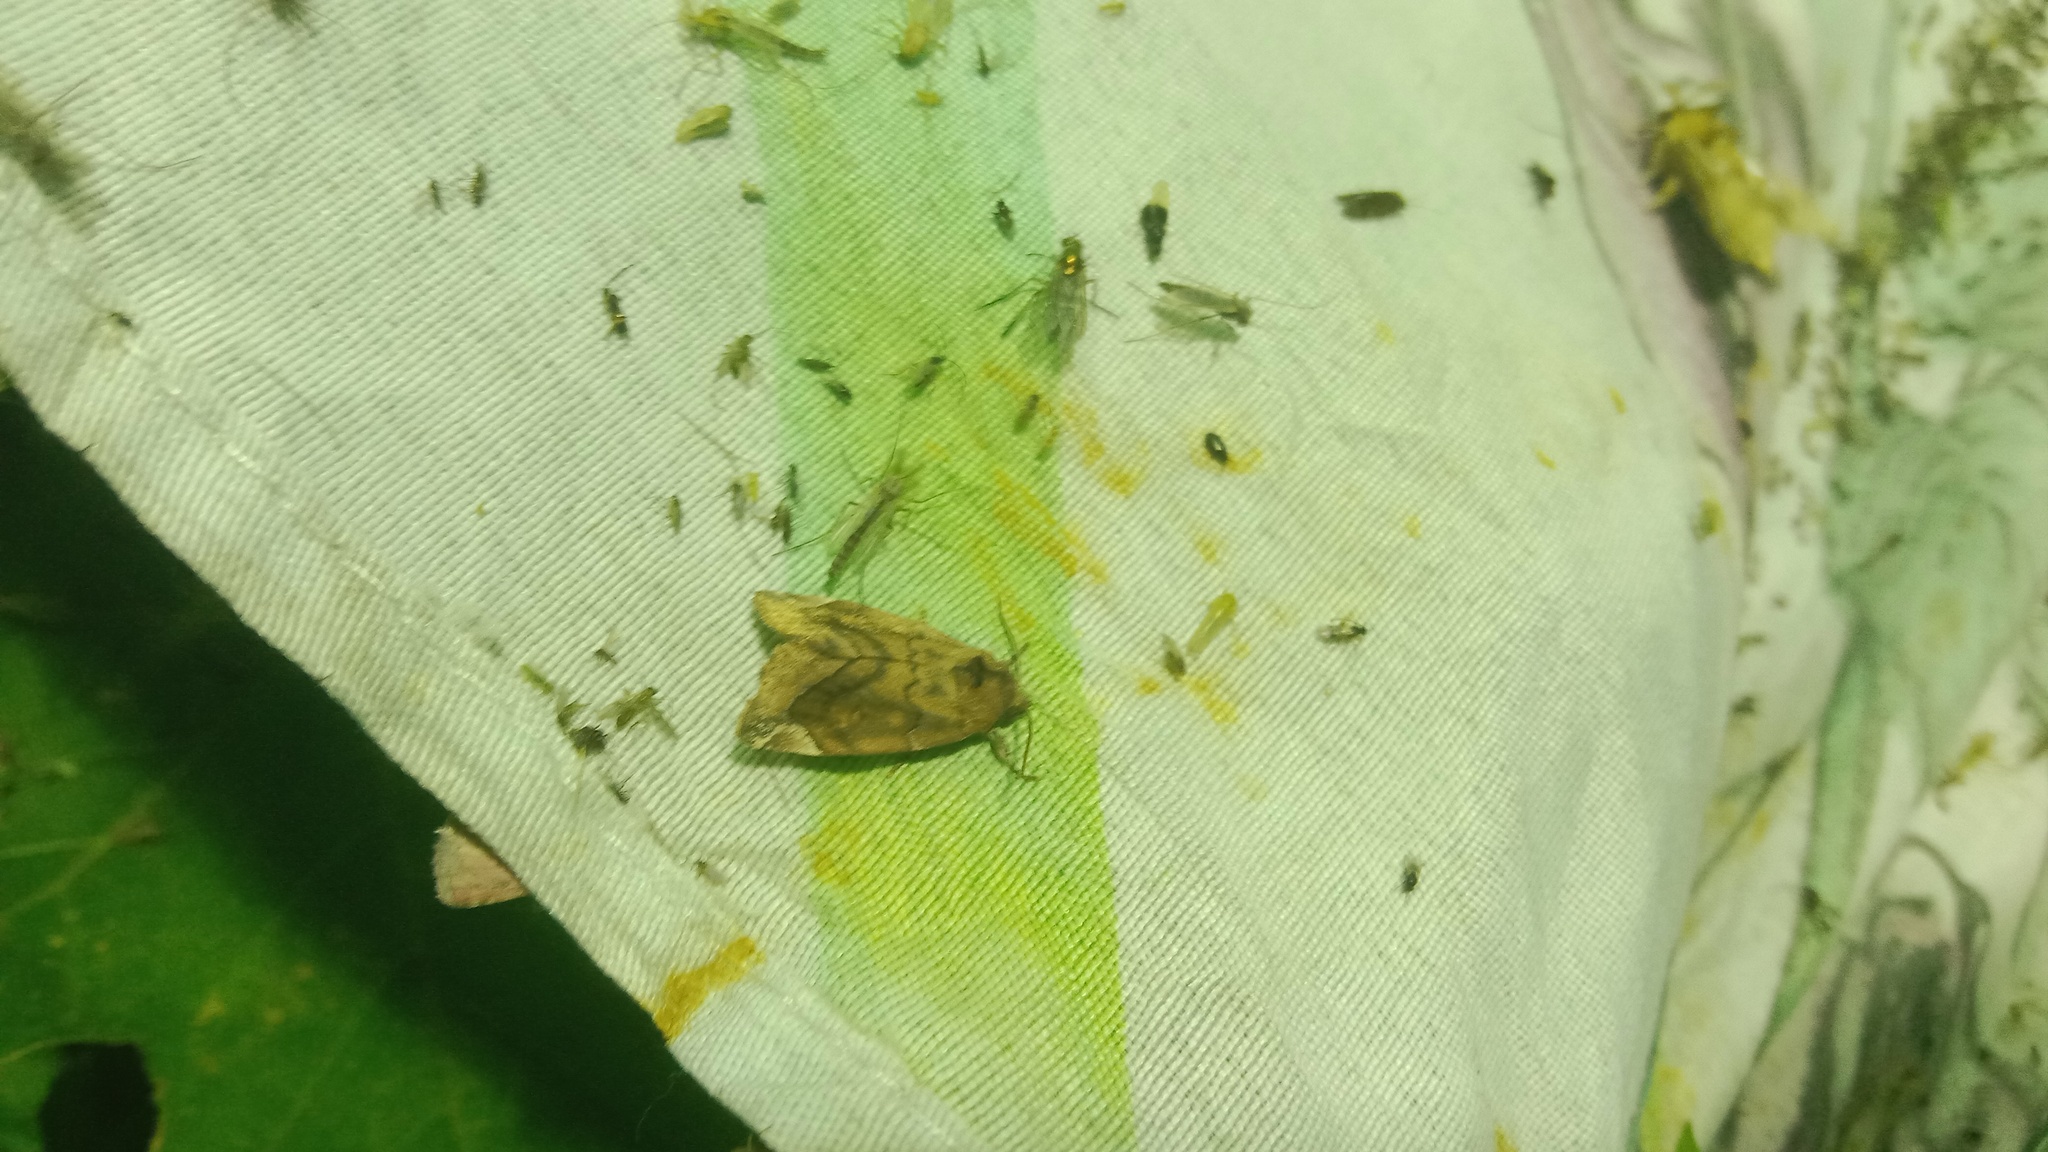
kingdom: Animalia
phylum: Arthropoda
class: Insecta
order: Lepidoptera
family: Noctuidae
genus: Cosmia
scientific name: Cosmia pyralina
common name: Lunar-spotted pinion
